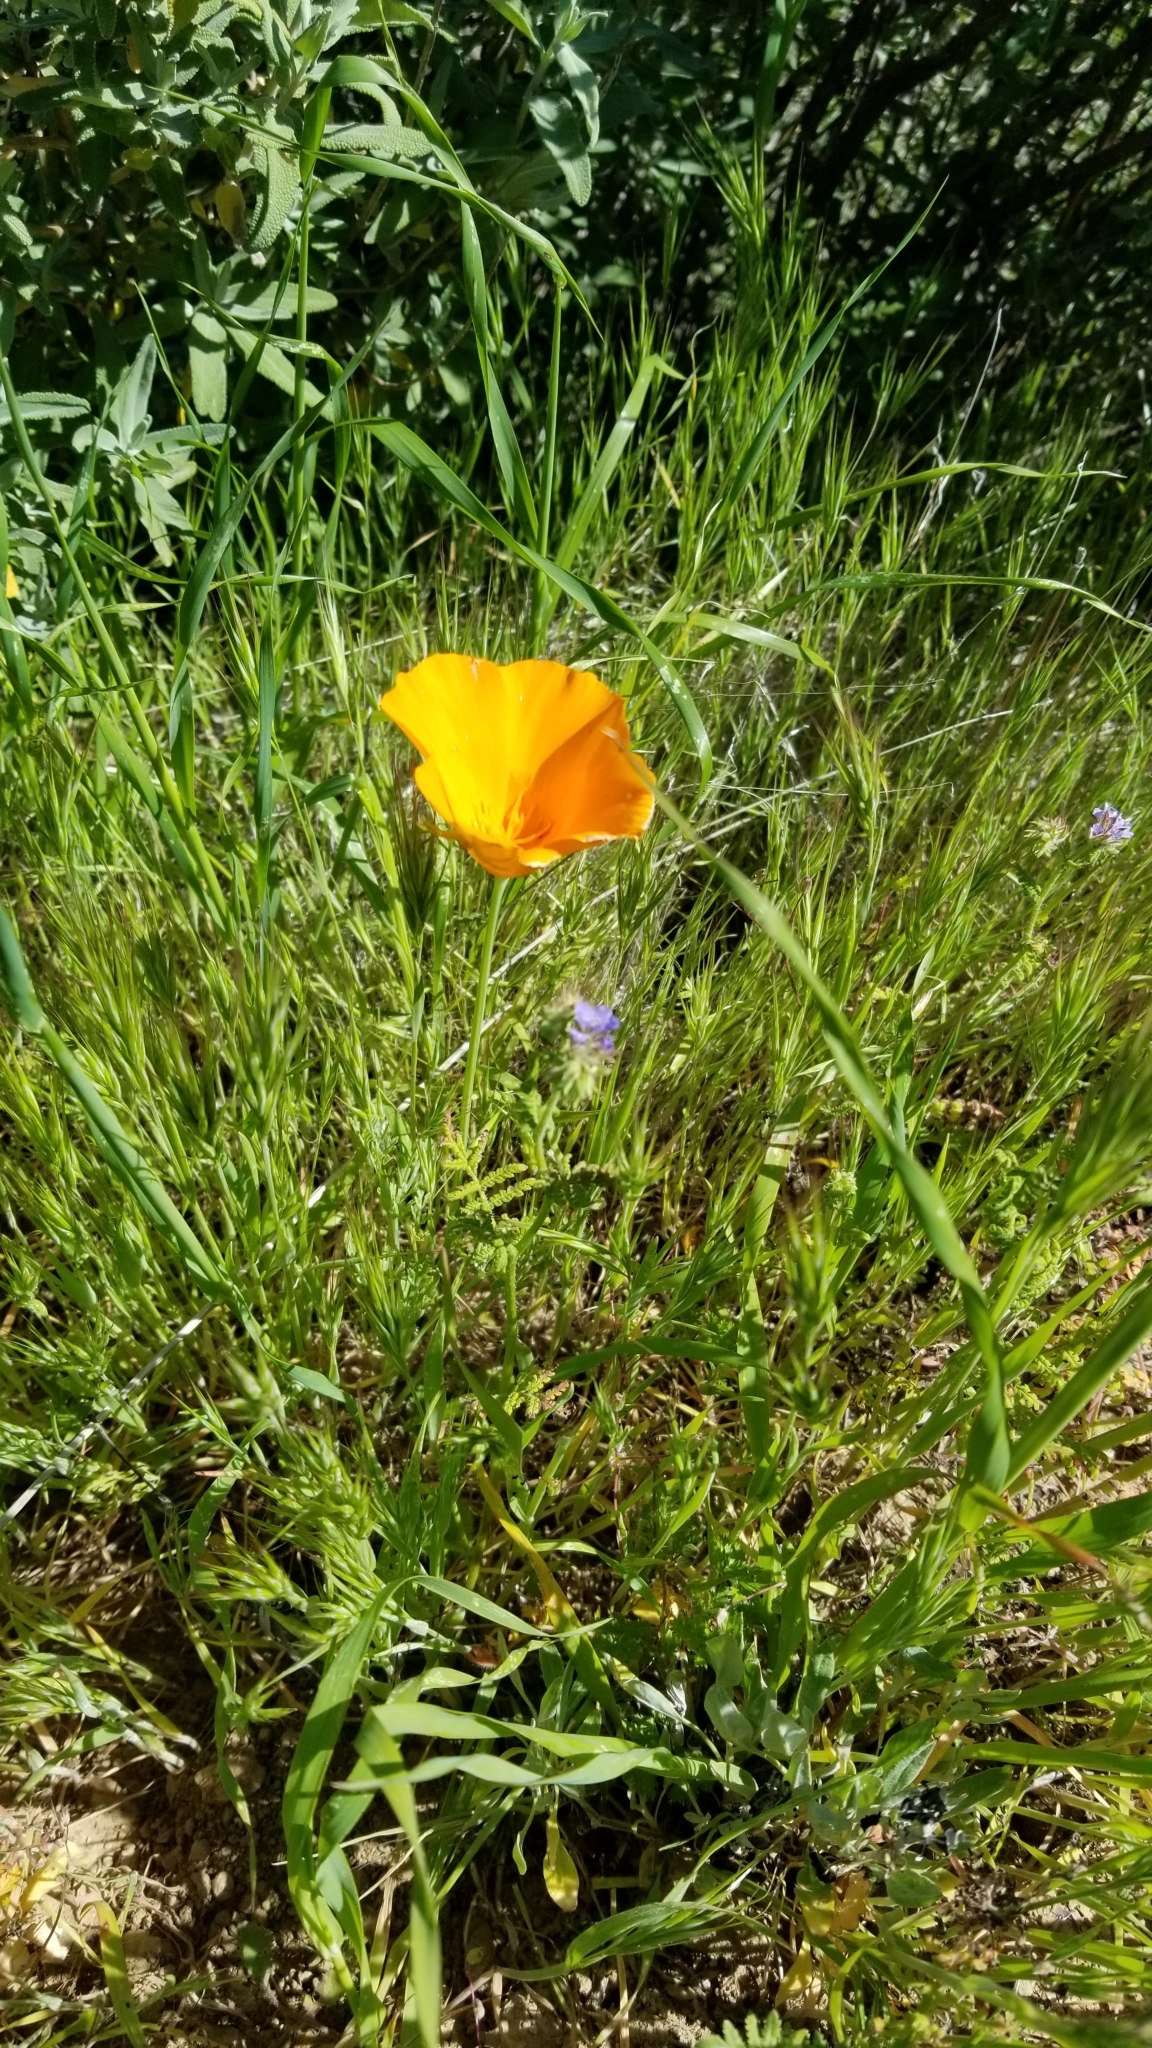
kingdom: Plantae
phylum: Tracheophyta
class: Magnoliopsida
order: Ranunculales
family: Papaveraceae
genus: Eschscholzia
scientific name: Eschscholzia californica
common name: California poppy
